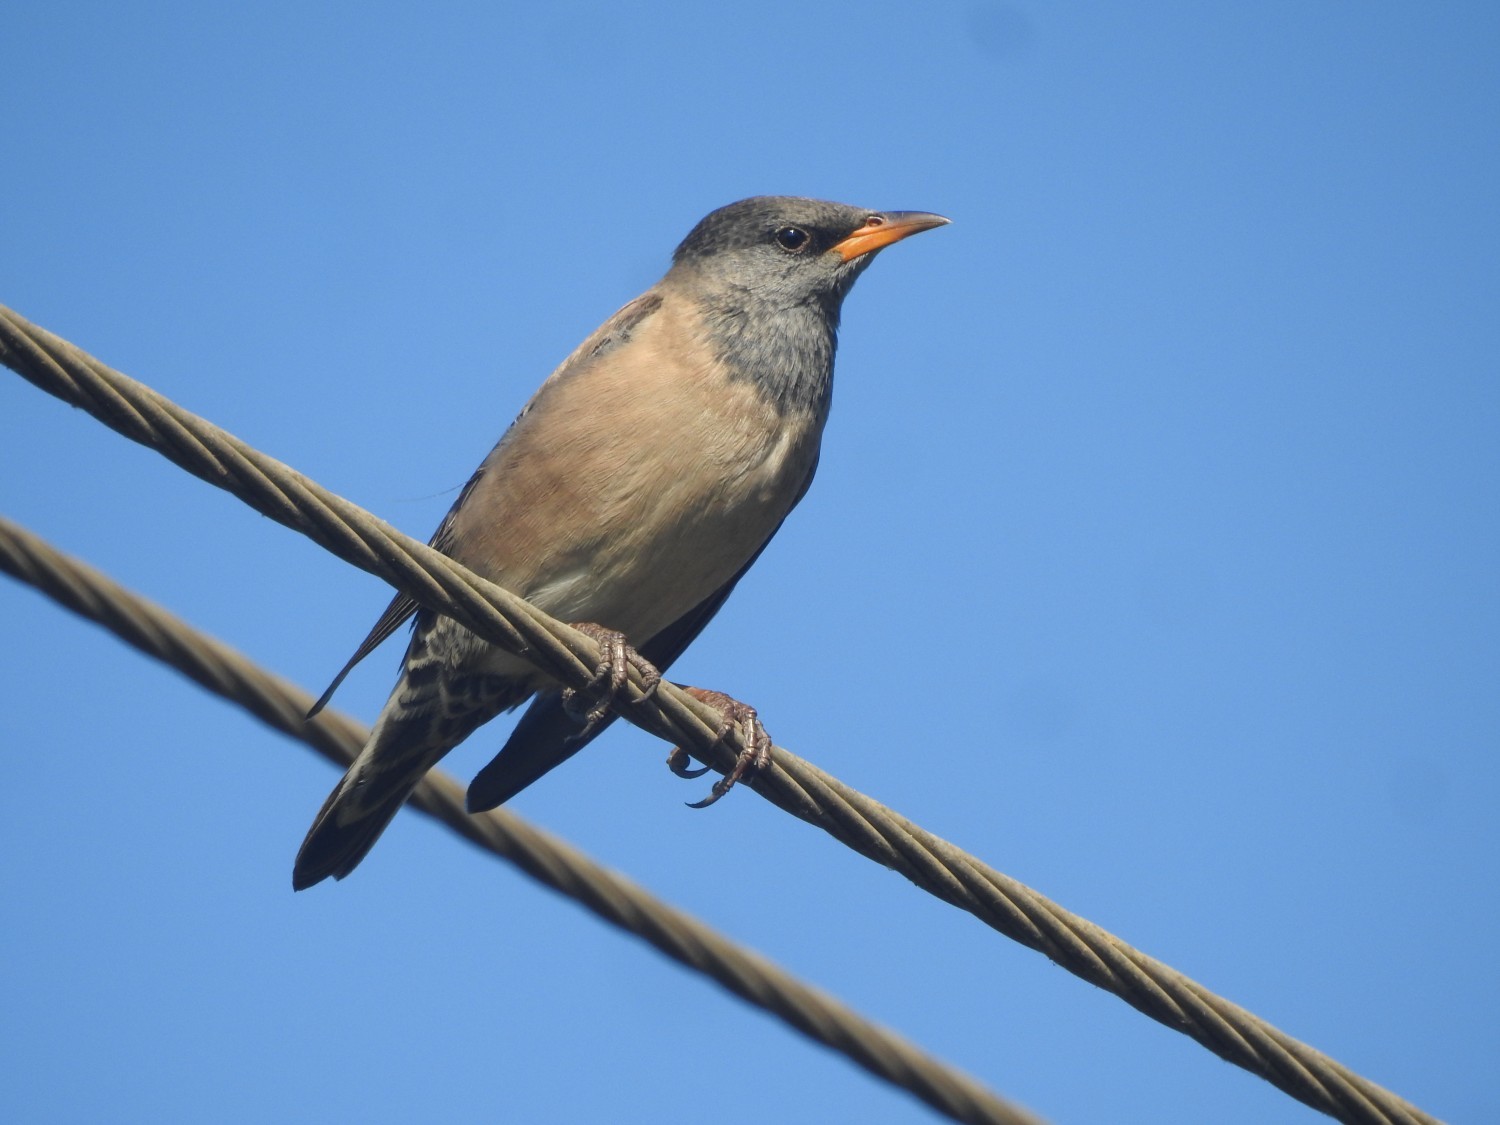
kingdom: Animalia
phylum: Chordata
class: Aves
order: Passeriformes
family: Sturnidae
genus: Pastor
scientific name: Pastor roseus
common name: Rosy starling
